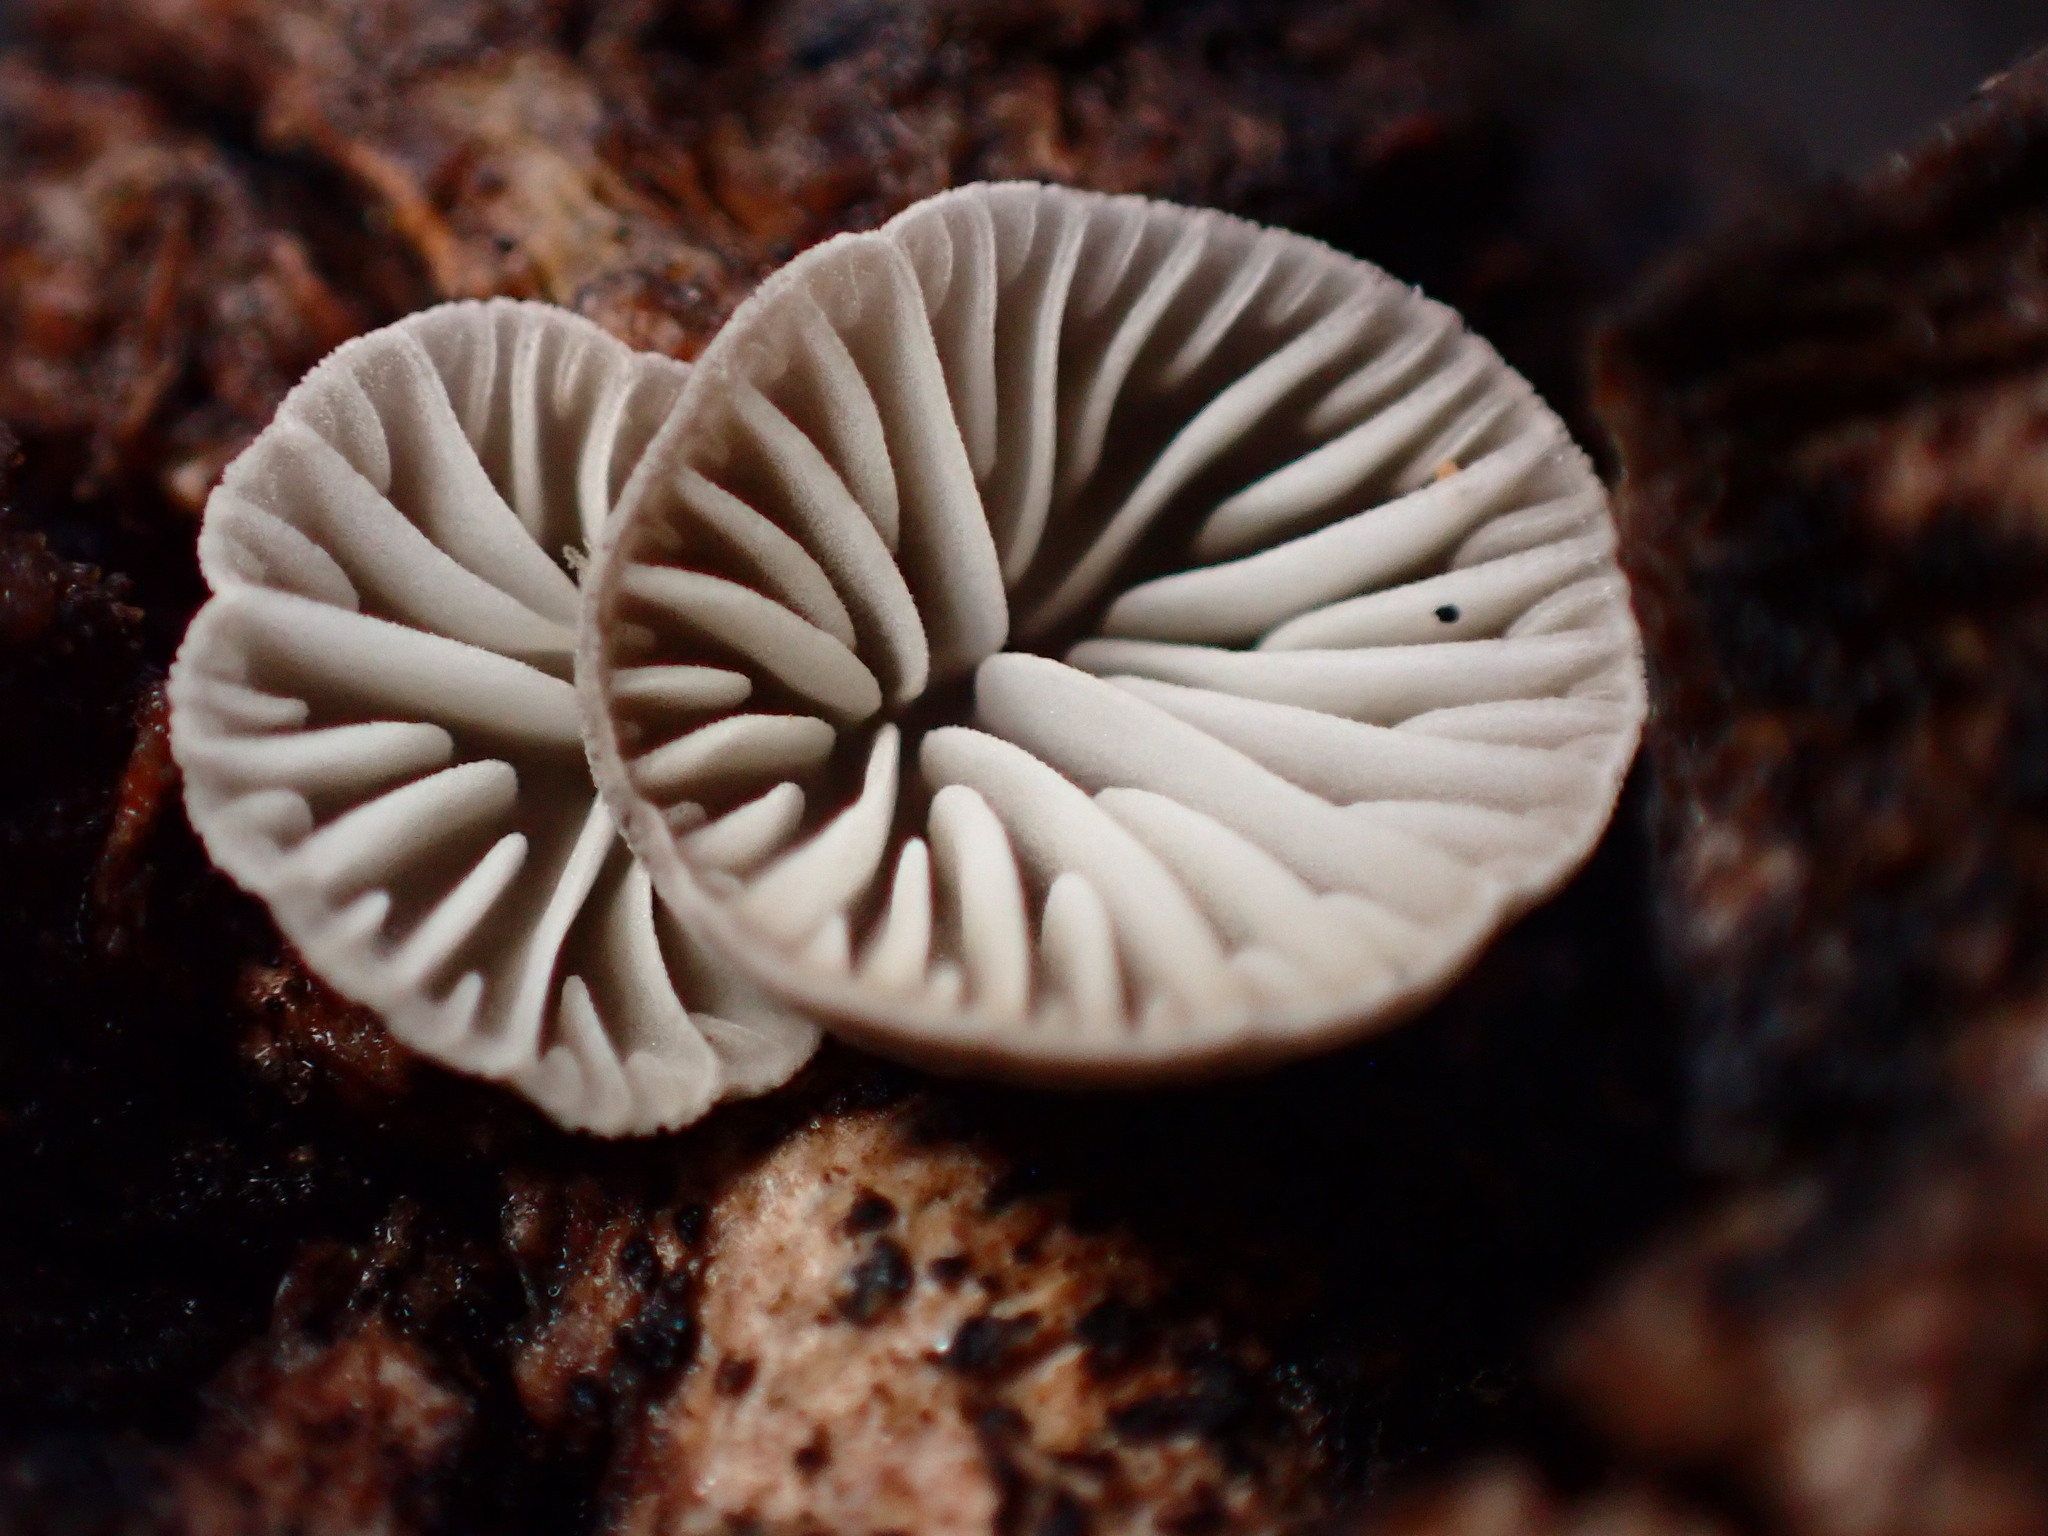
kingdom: Fungi
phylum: Basidiomycota
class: Agaricomycetes
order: Agaricales
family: Pleurotaceae
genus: Resupinatus
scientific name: Resupinatus applicatus
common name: Smoked oysterling
